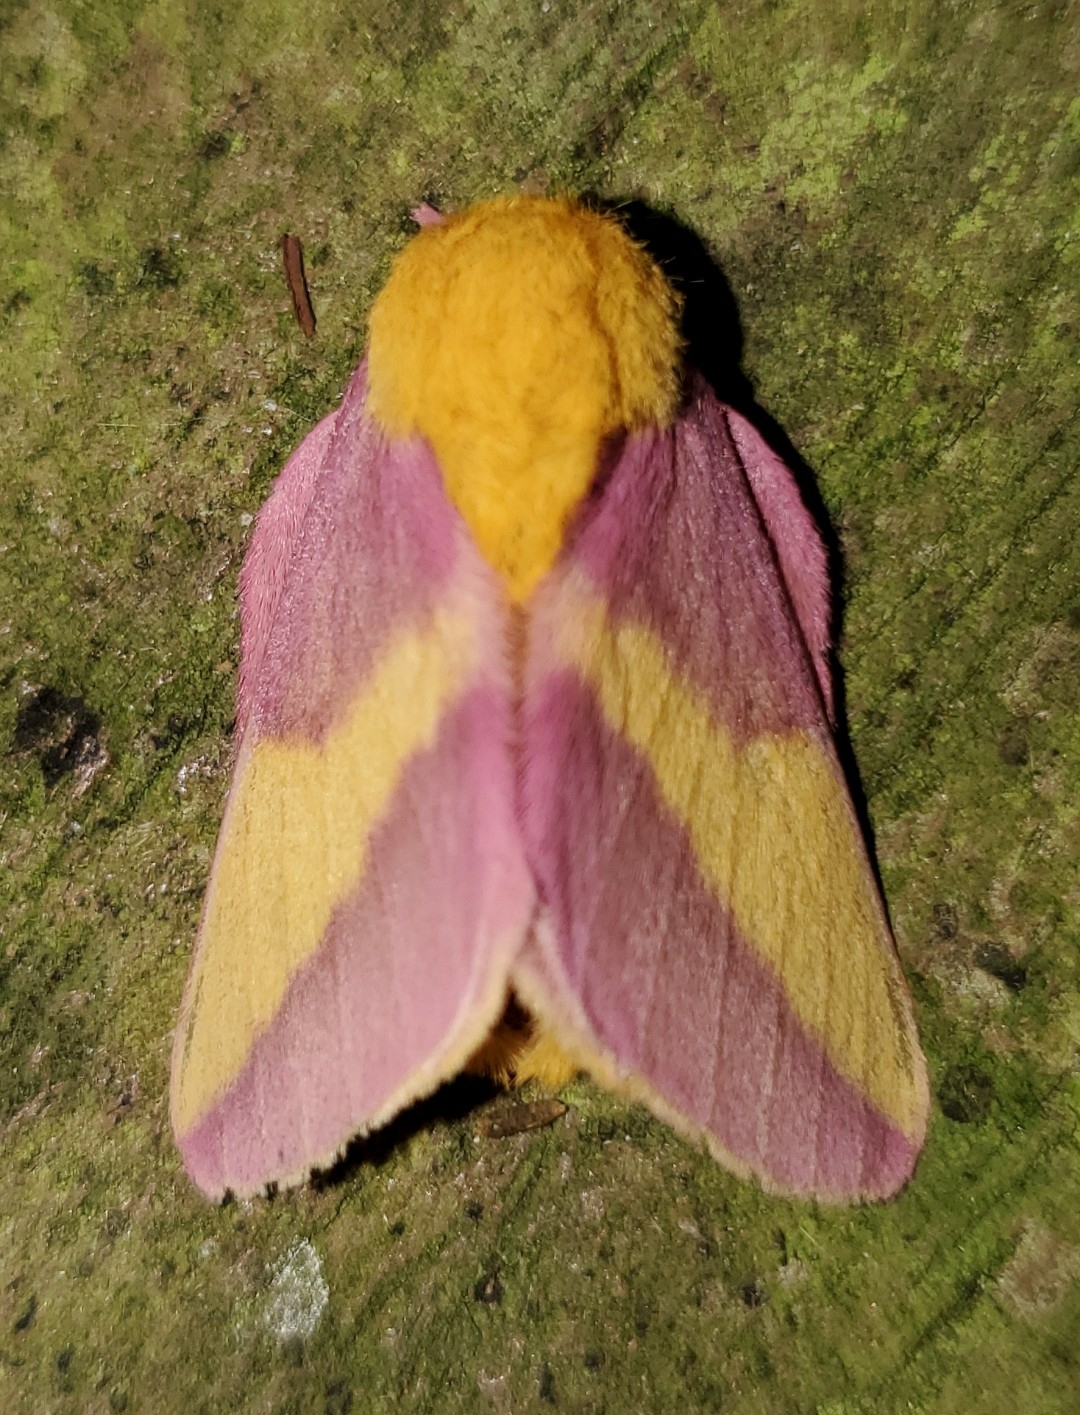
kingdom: Animalia
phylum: Arthropoda
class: Insecta
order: Lepidoptera
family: Saturniidae
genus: Dryocampa
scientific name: Dryocampa rubicunda
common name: Rosy maple moth
